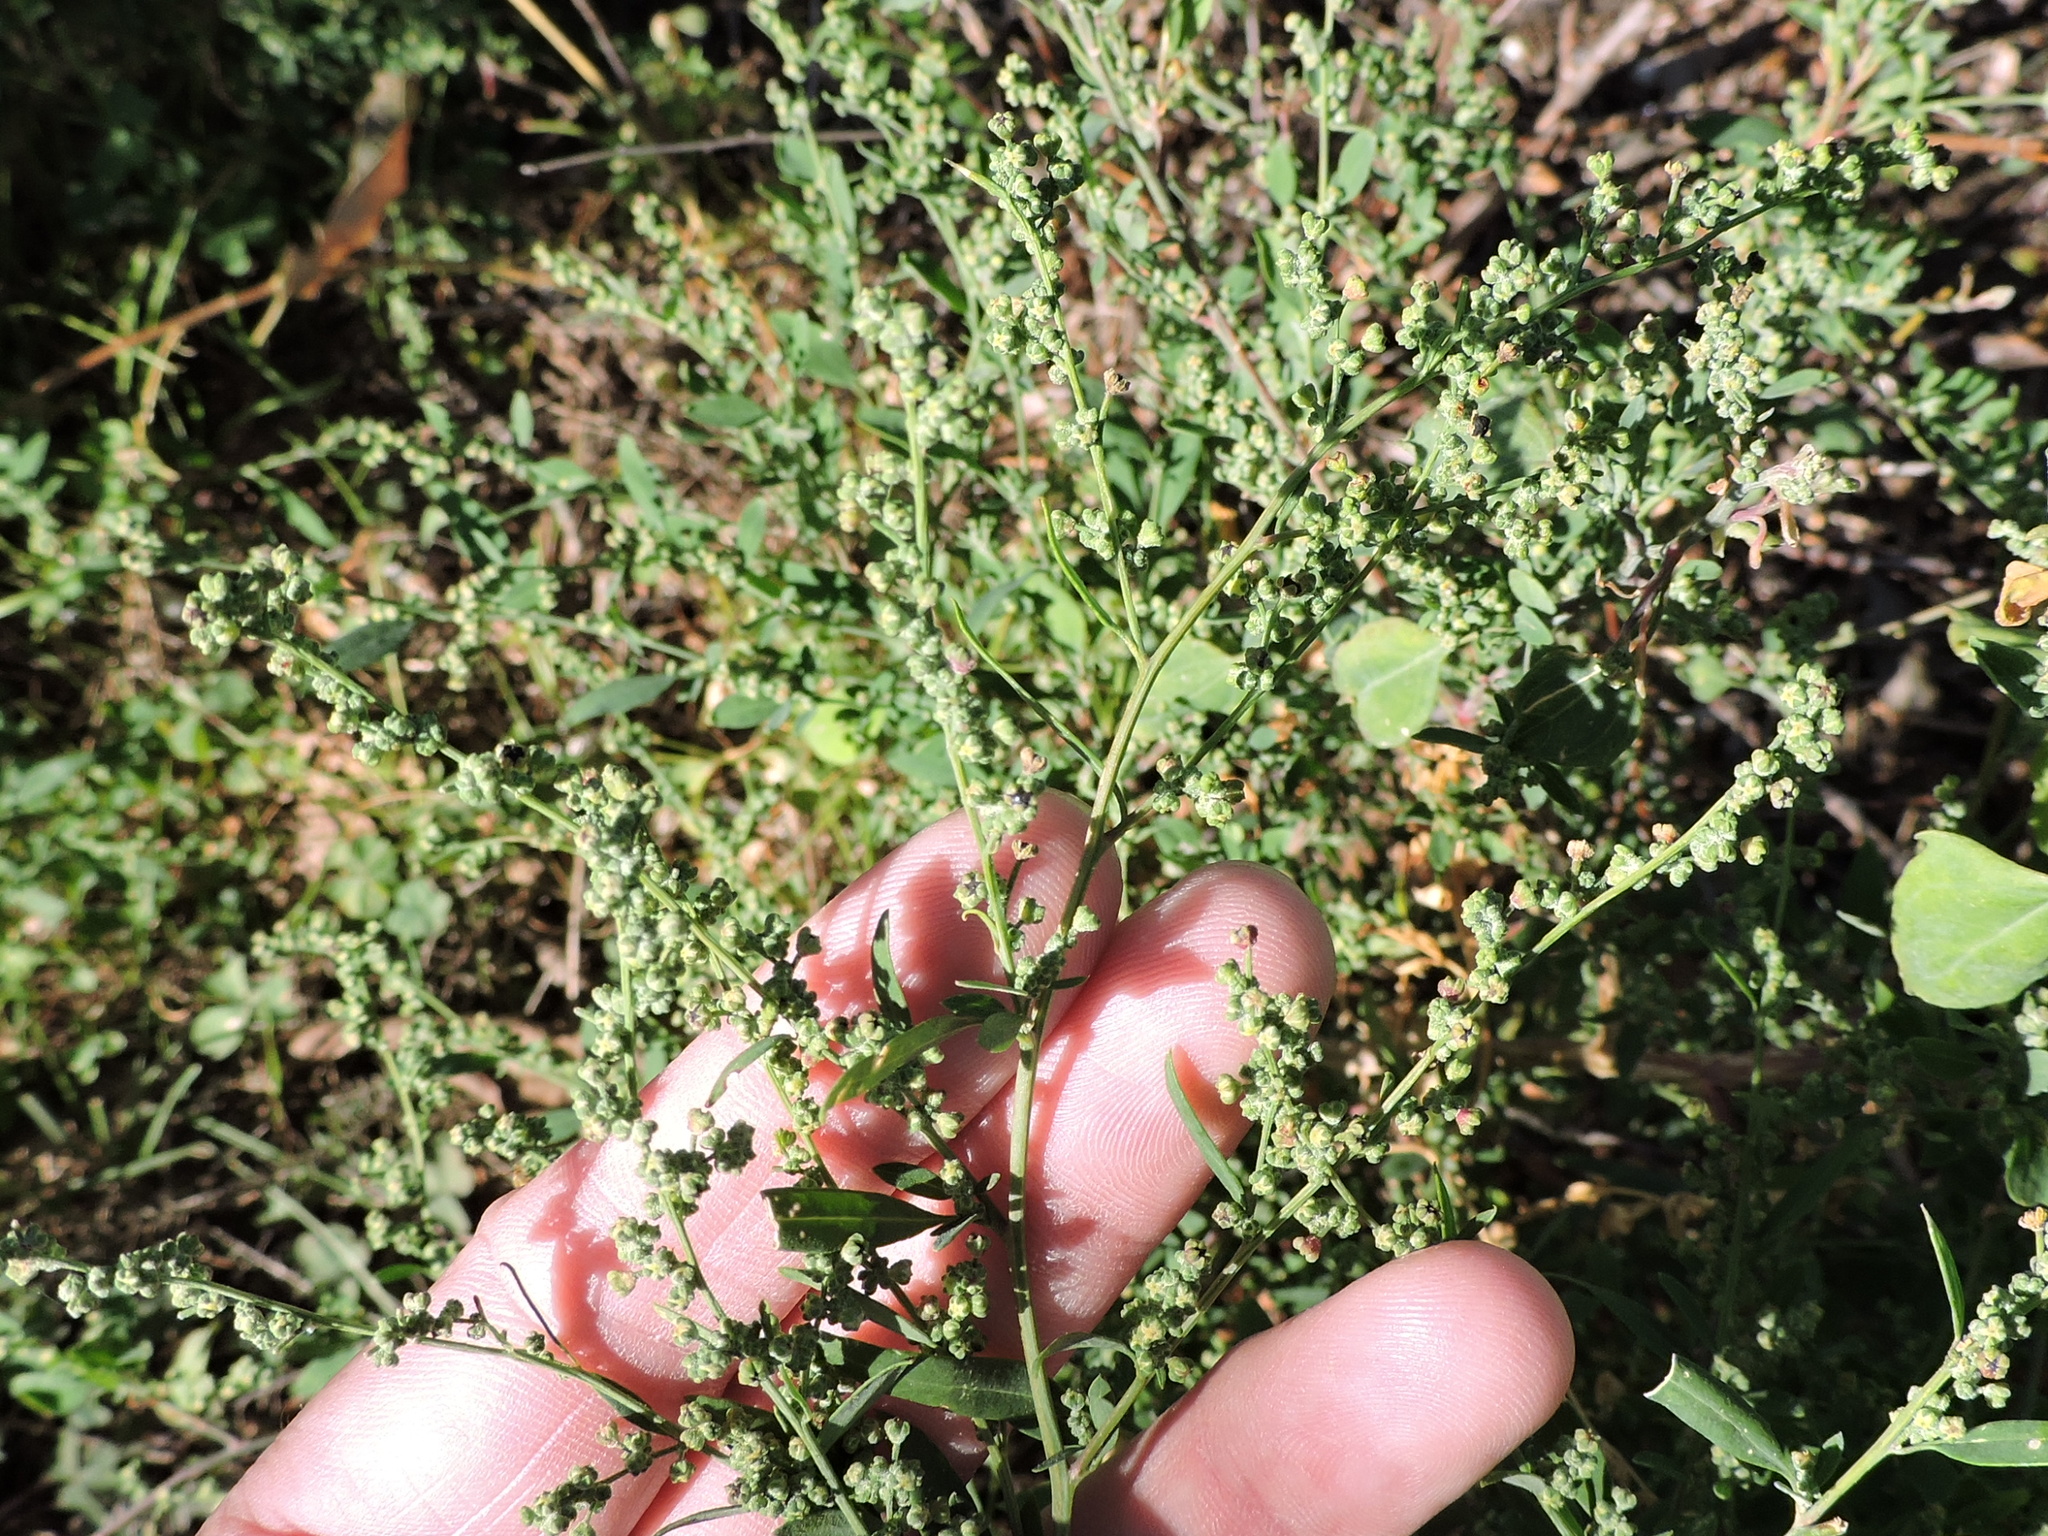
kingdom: Plantae
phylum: Tracheophyta
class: Magnoliopsida
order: Caryophyllales
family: Amaranthaceae
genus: Chenopodium
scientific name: Chenopodium album
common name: Fat-hen
